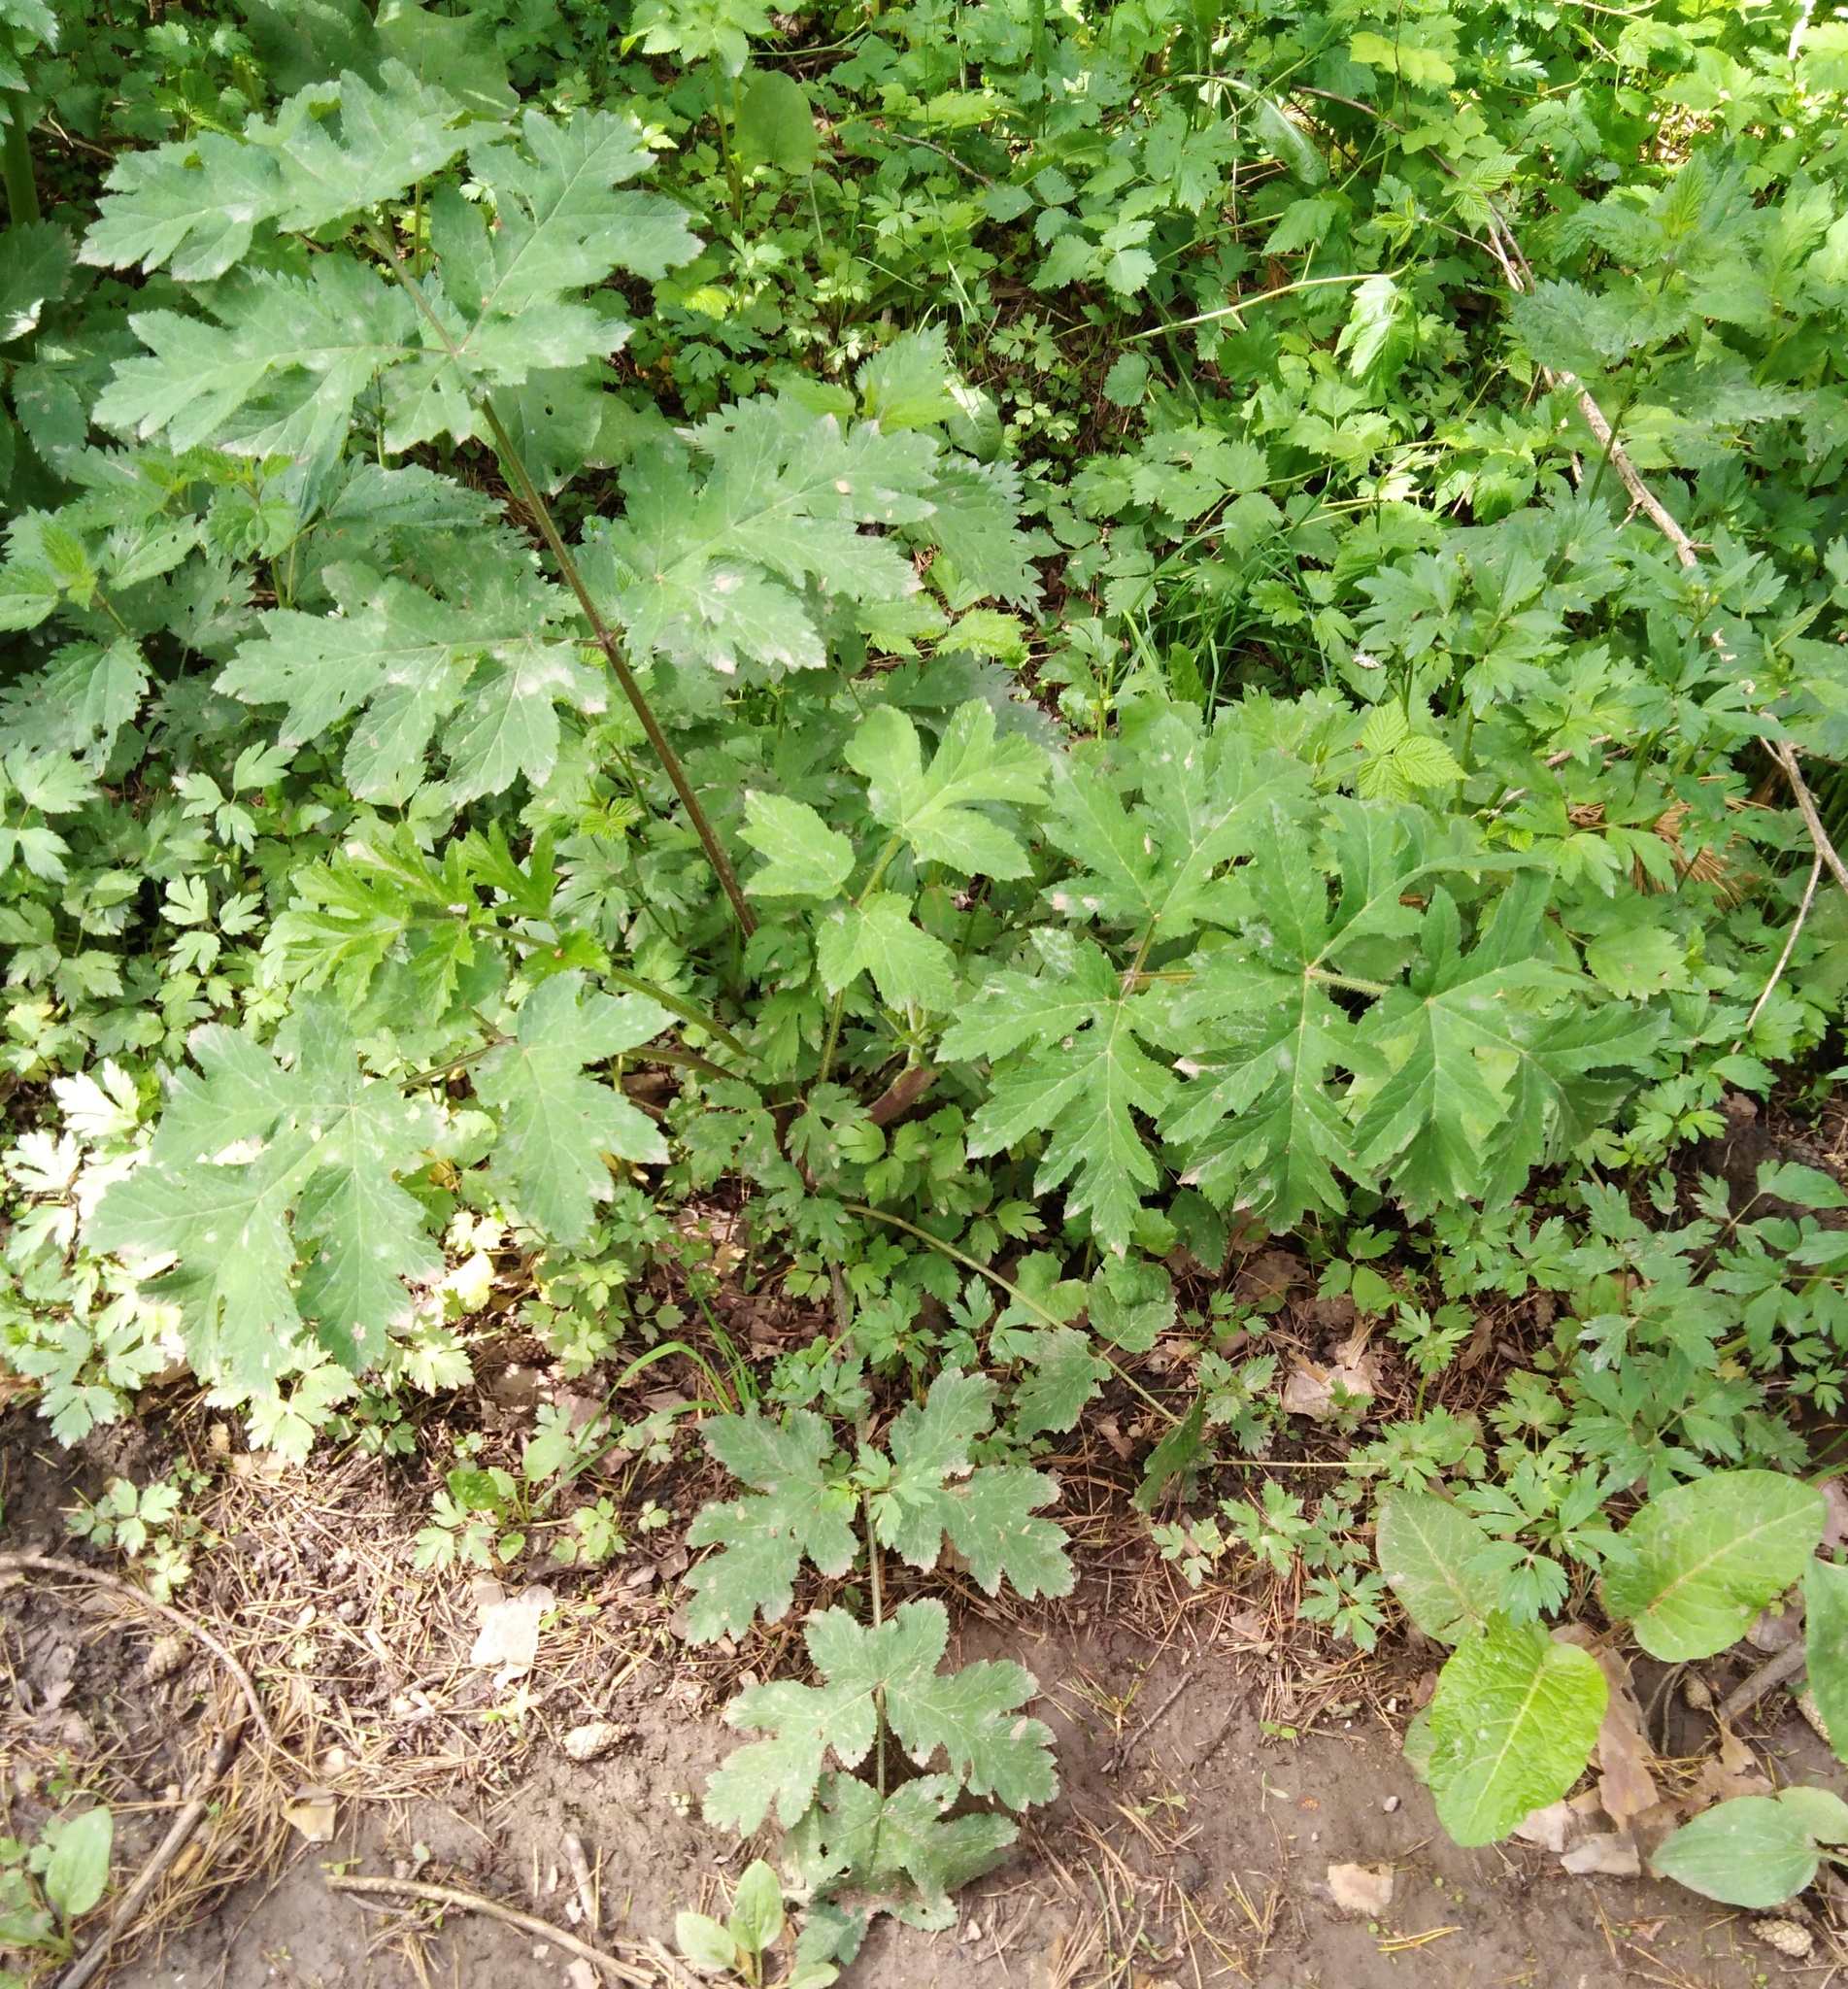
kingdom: Plantae
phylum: Tracheophyta
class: Magnoliopsida
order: Apiales
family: Apiaceae
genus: Heracleum
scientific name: Heracleum sphondylium
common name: Hogweed
